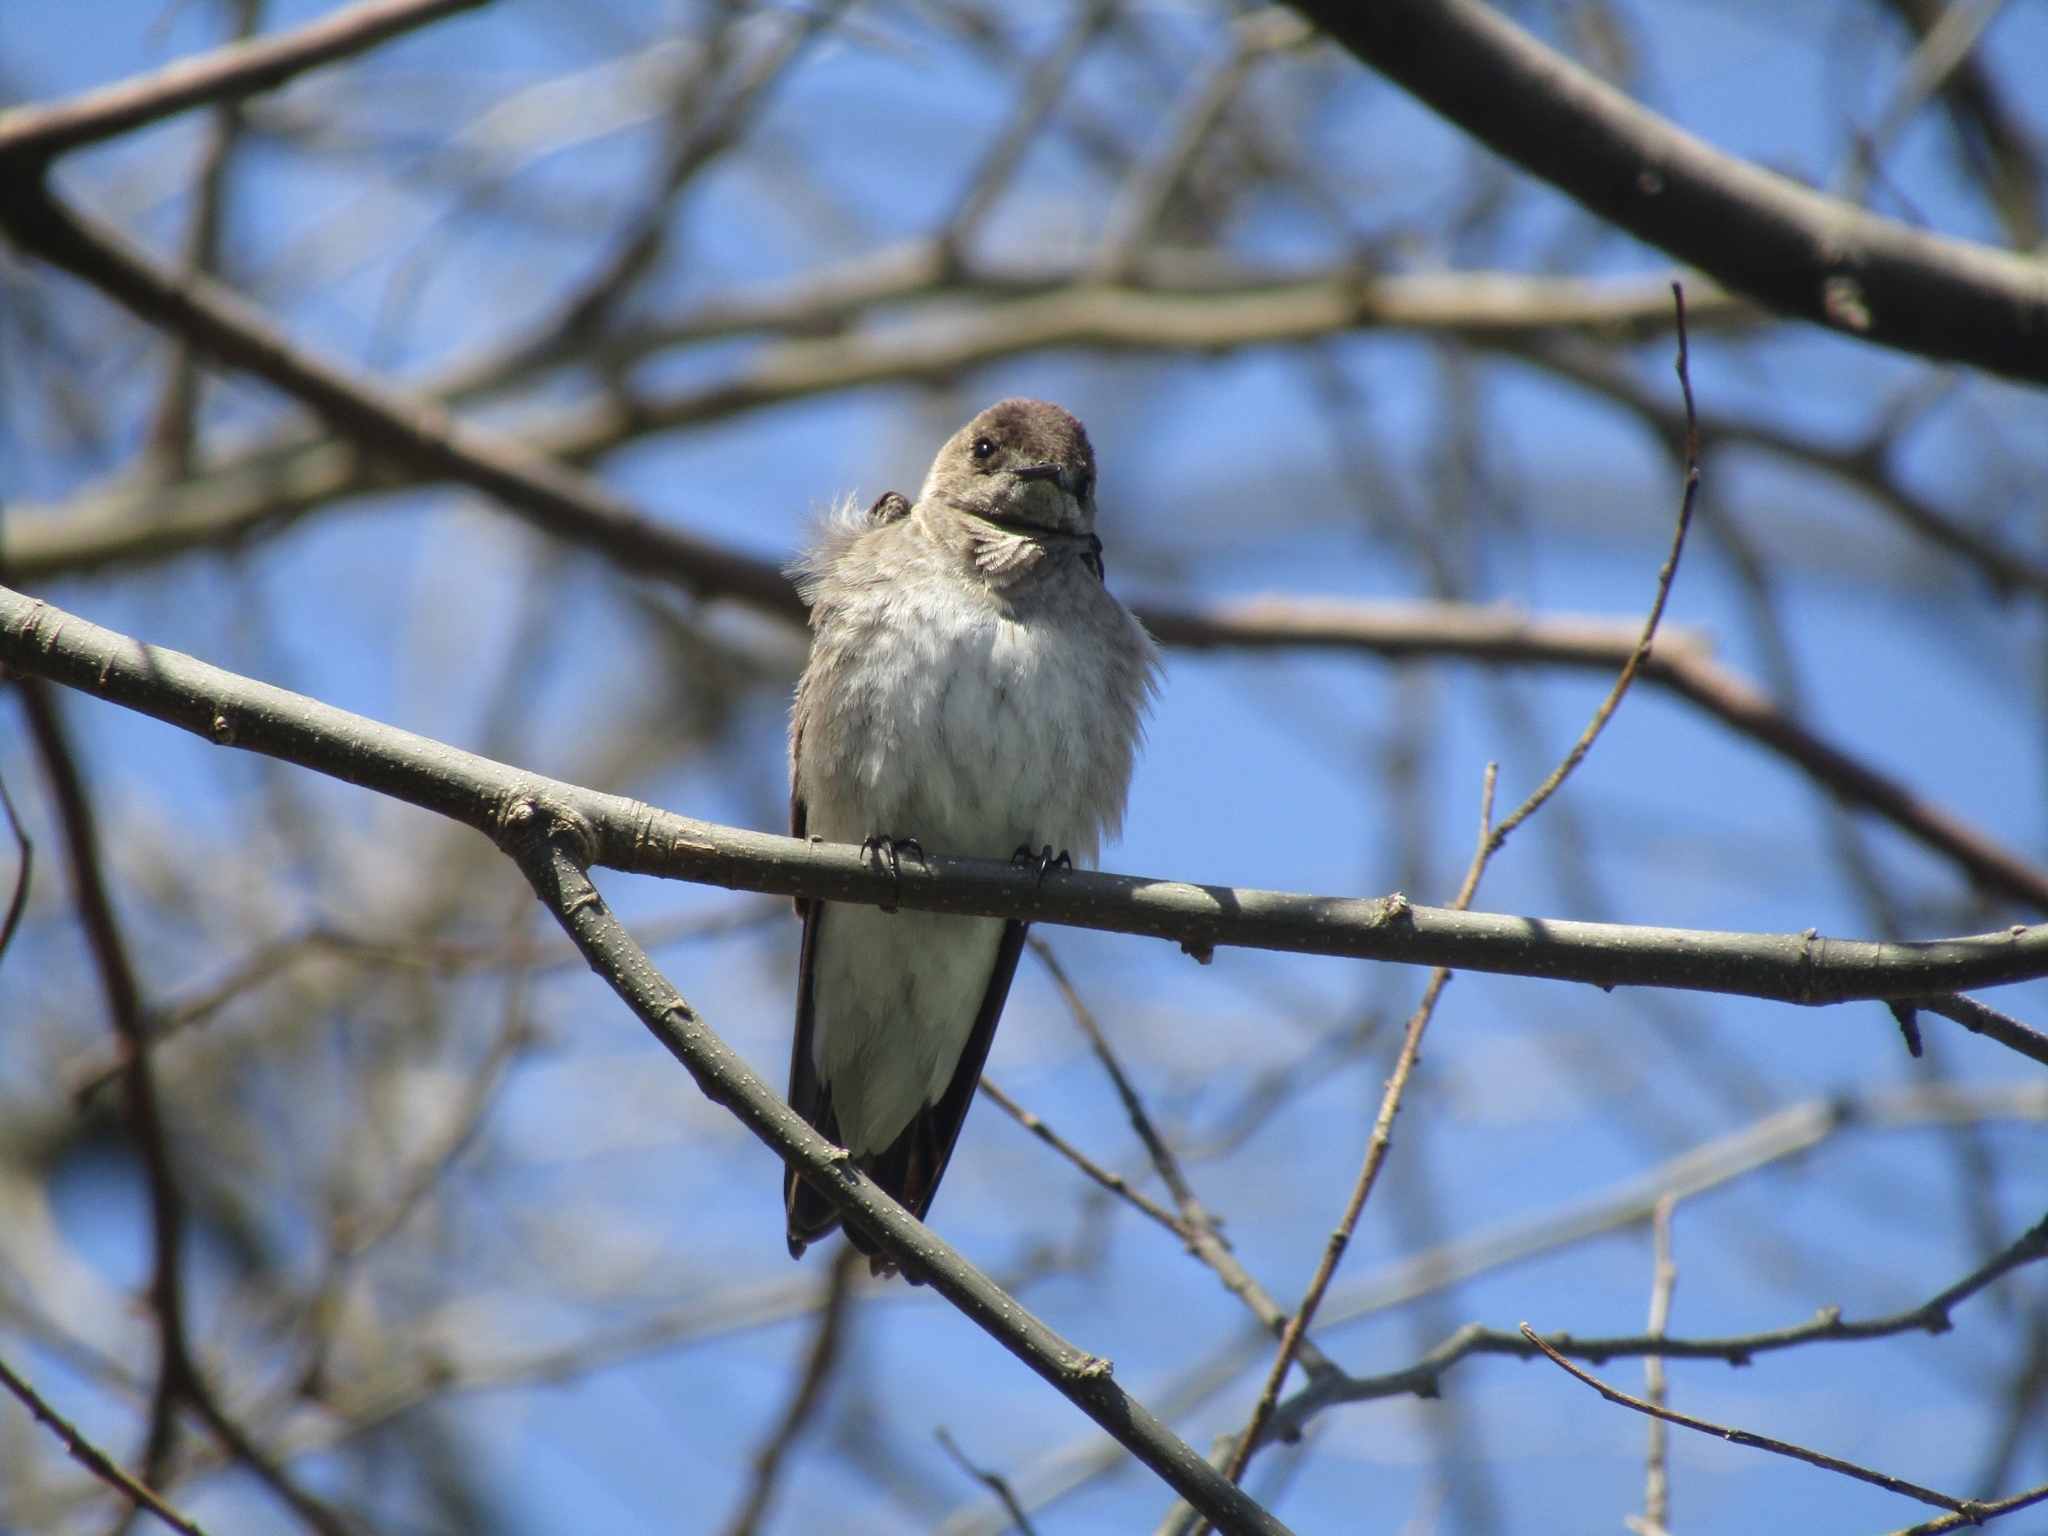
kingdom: Animalia
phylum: Chordata
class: Aves
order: Passeriformes
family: Hirundinidae
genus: Stelgidopteryx
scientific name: Stelgidopteryx serripennis
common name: Northern rough-winged swallow
